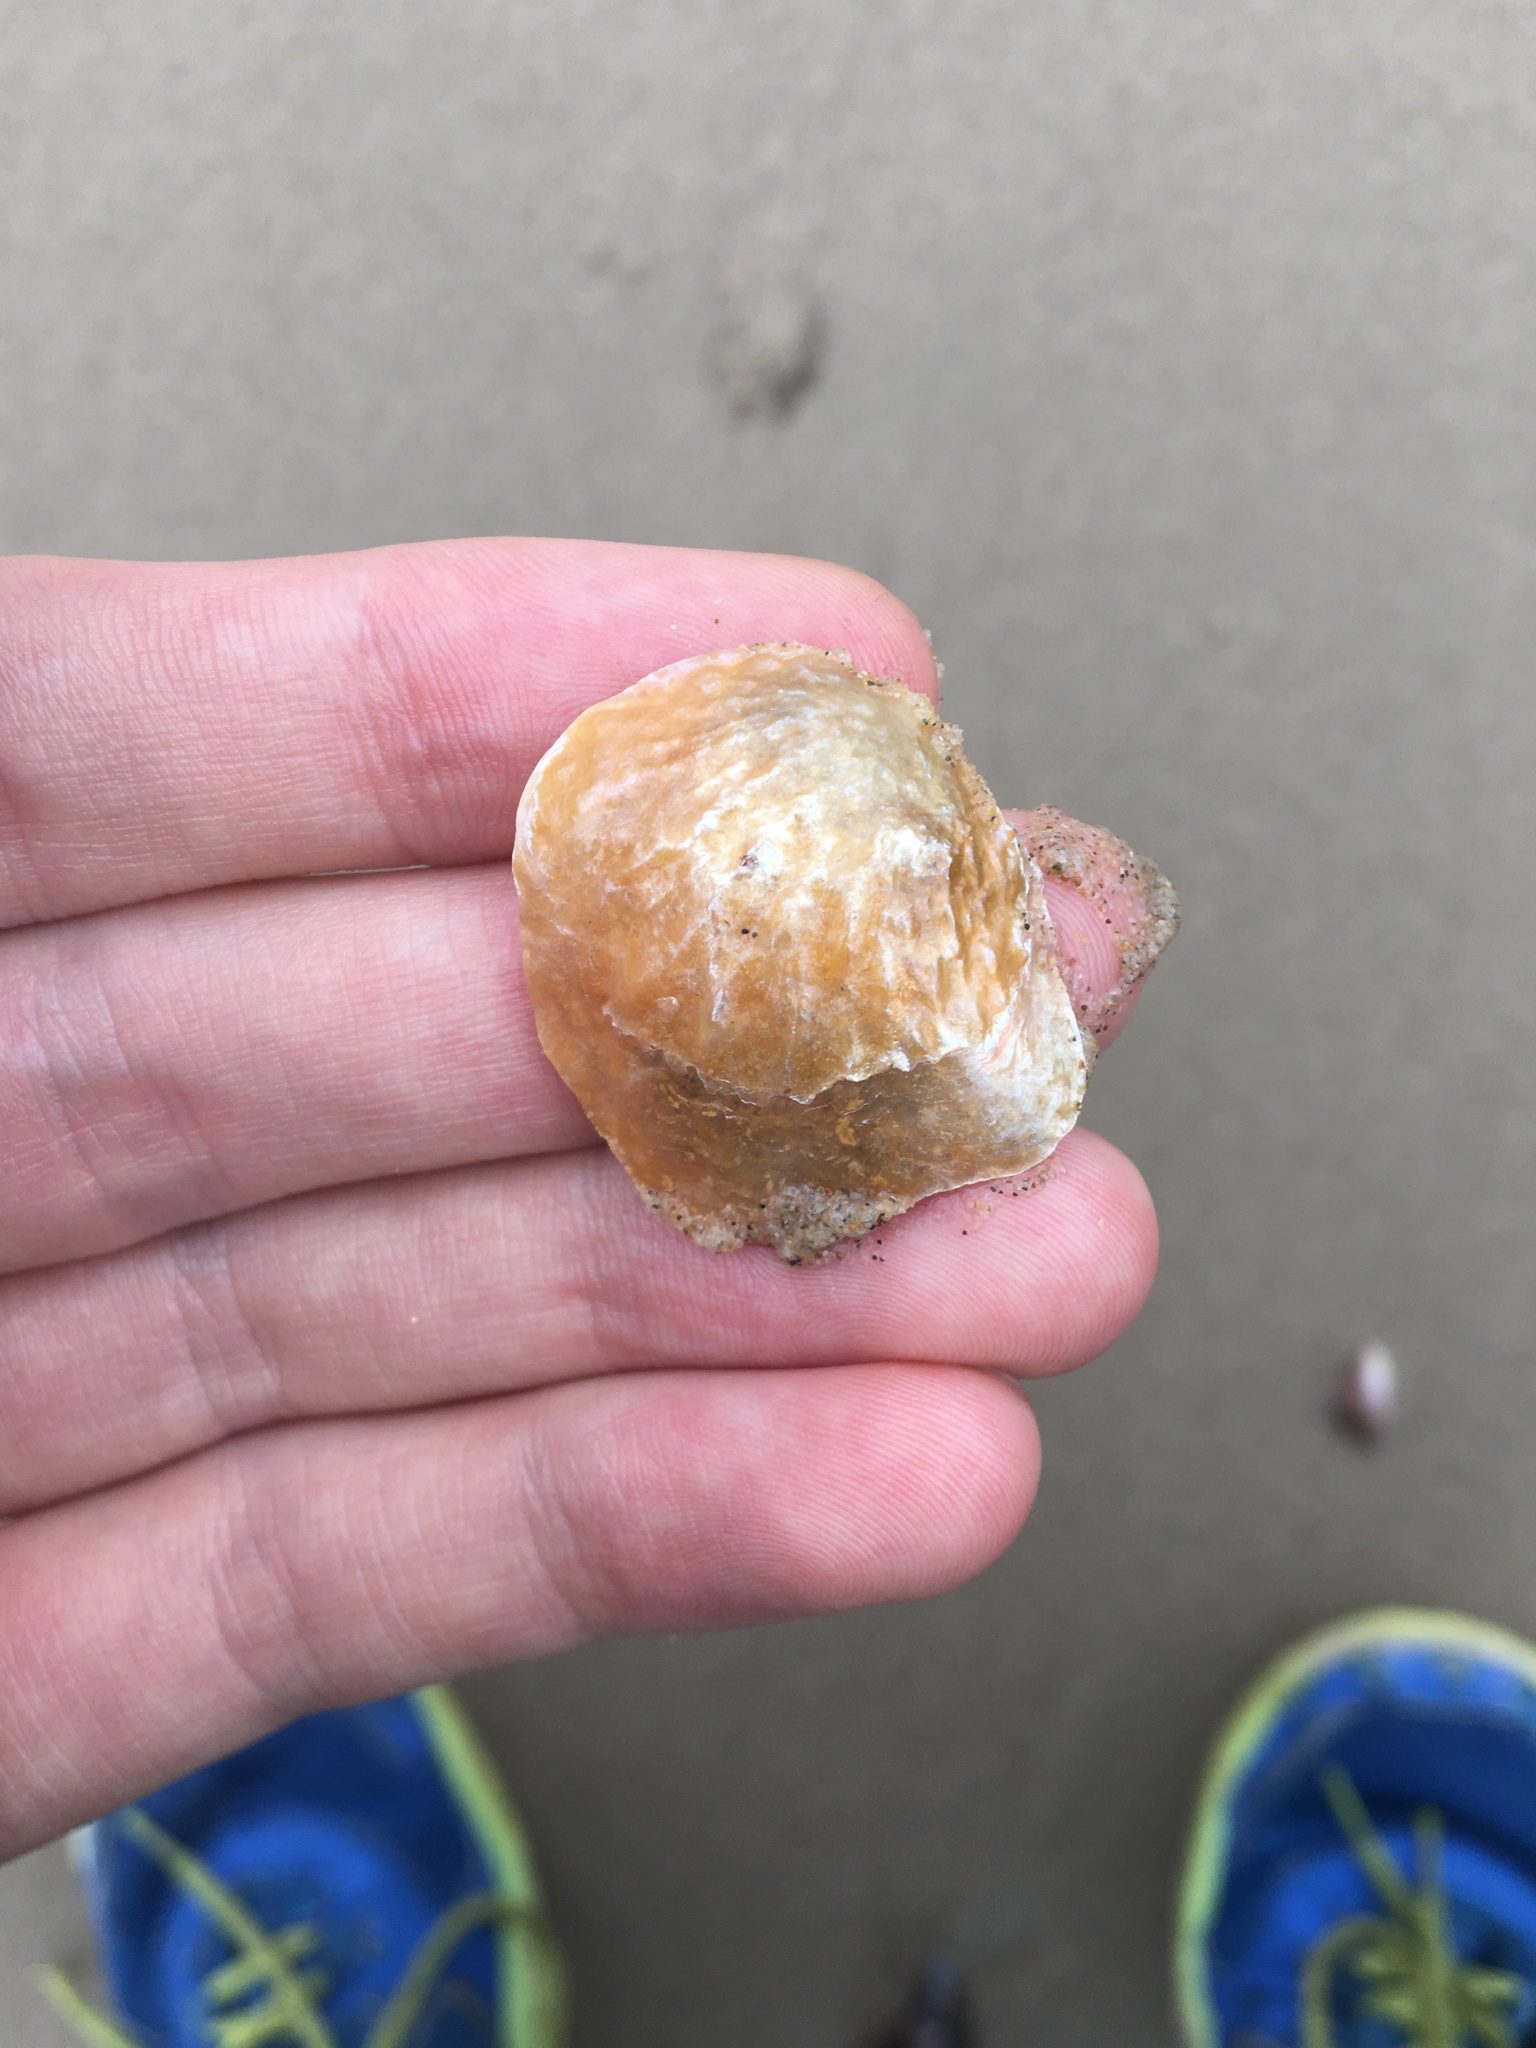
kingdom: Animalia
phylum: Mollusca
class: Bivalvia
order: Pectinida
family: Anomiidae
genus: Anomia
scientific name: Anomia trigonopsis
